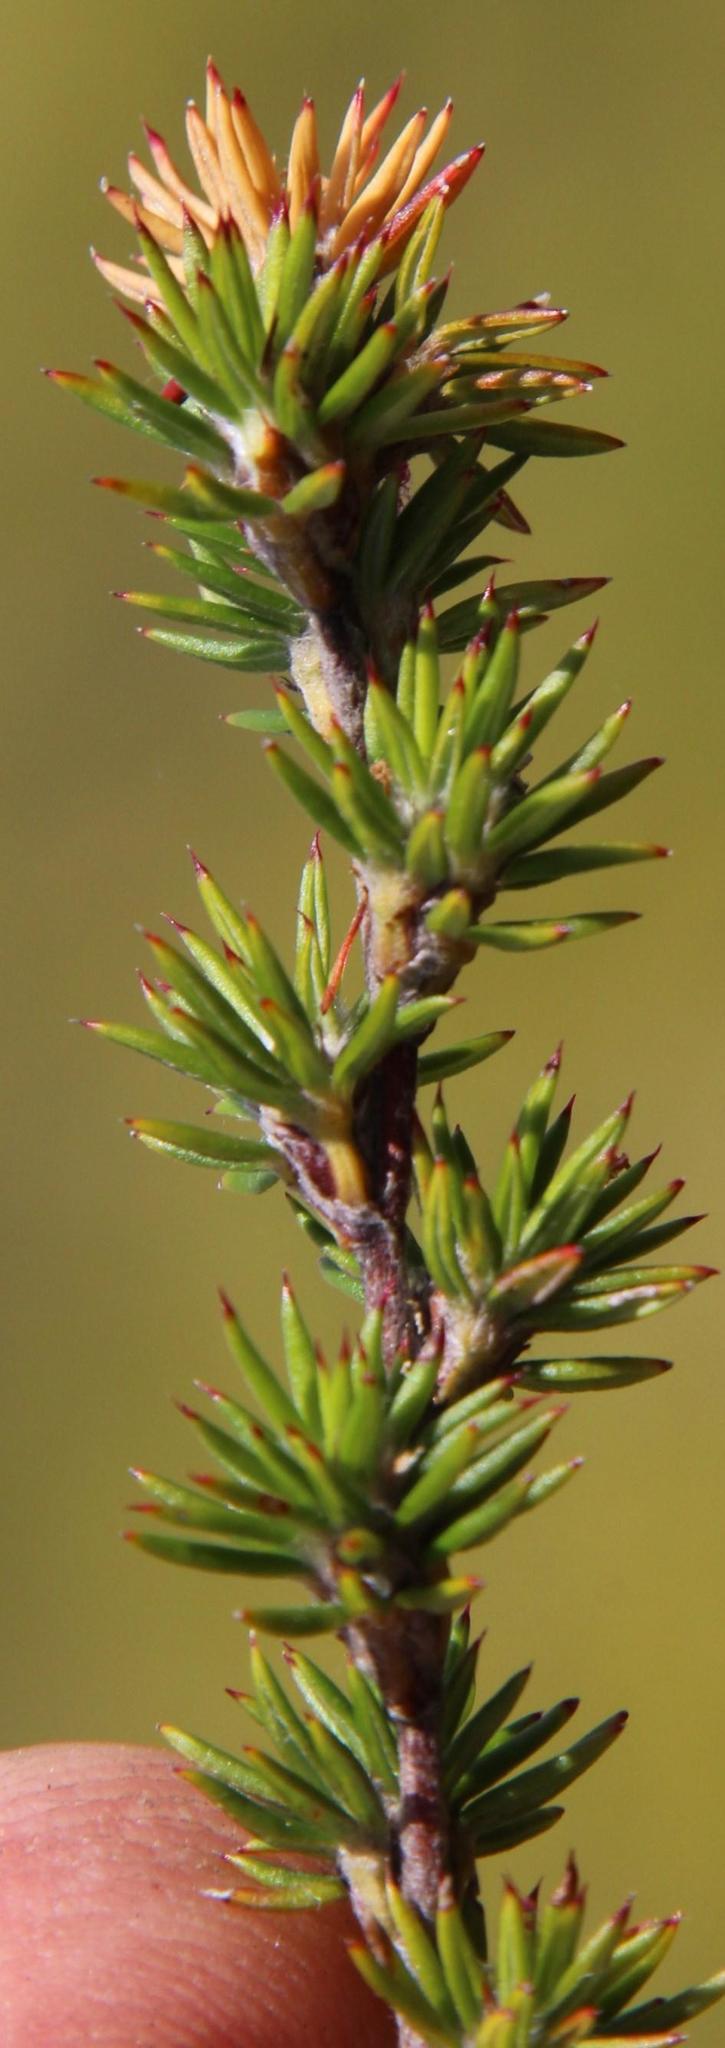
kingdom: Plantae
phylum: Tracheophyta
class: Magnoliopsida
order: Rosales
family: Rosaceae
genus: Cliffortia
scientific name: Cliffortia stricta
